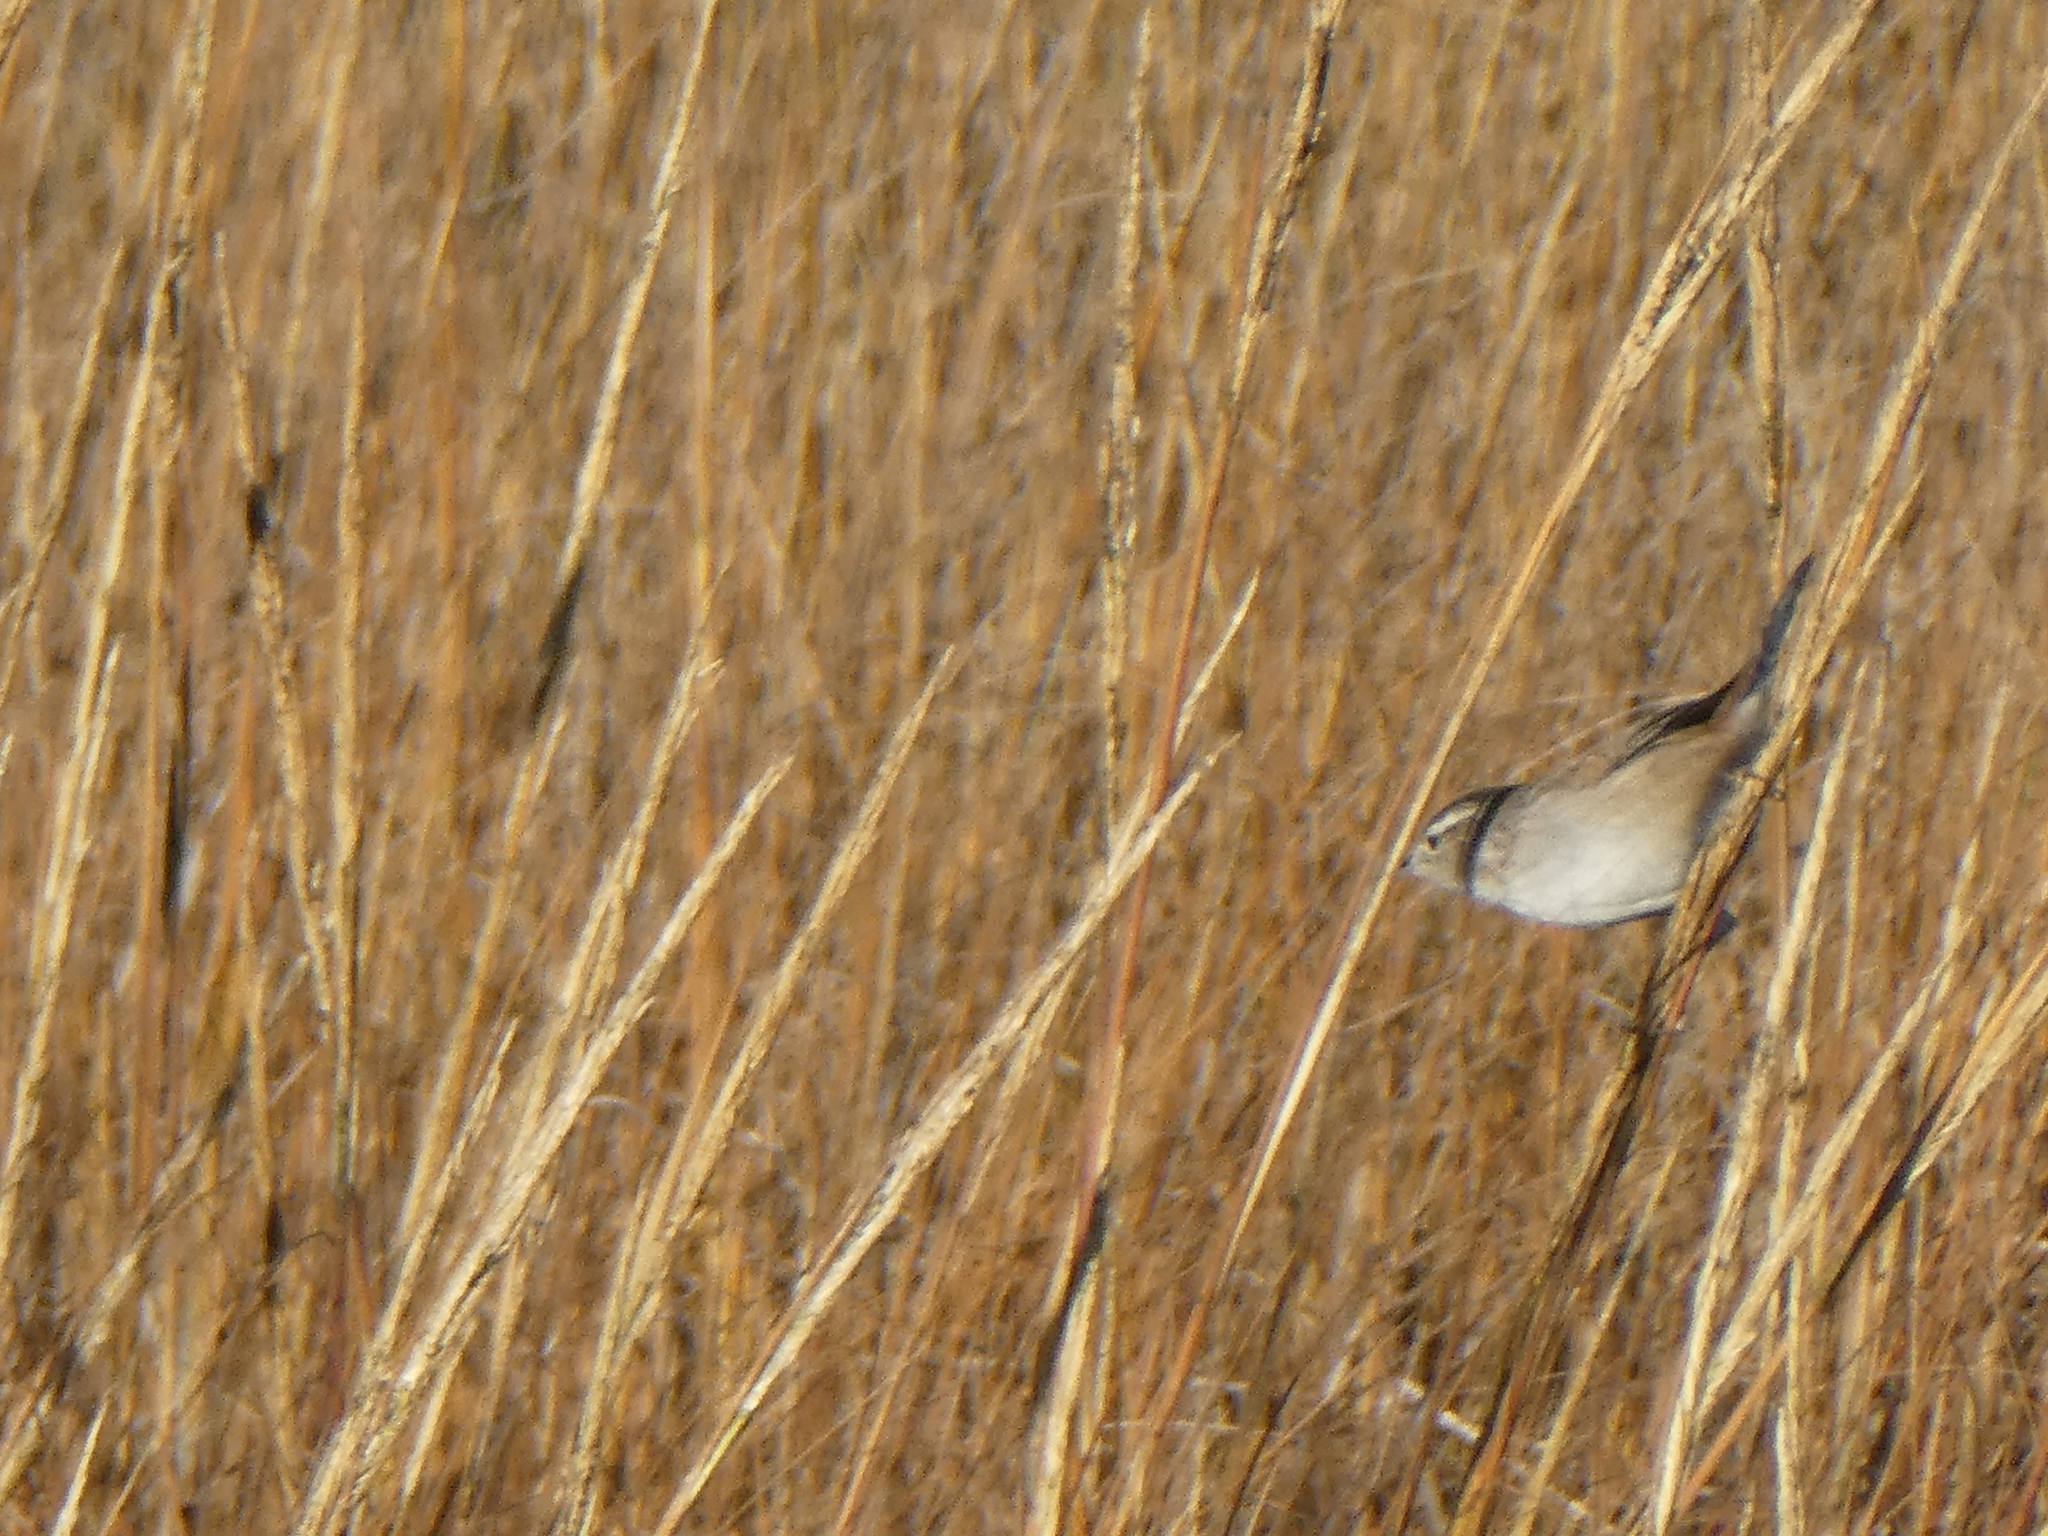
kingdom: Animalia
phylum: Chordata
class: Aves
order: Passeriformes
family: Troglodytidae
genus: Cistothorus
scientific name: Cistothorus palustris
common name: Marsh wren
